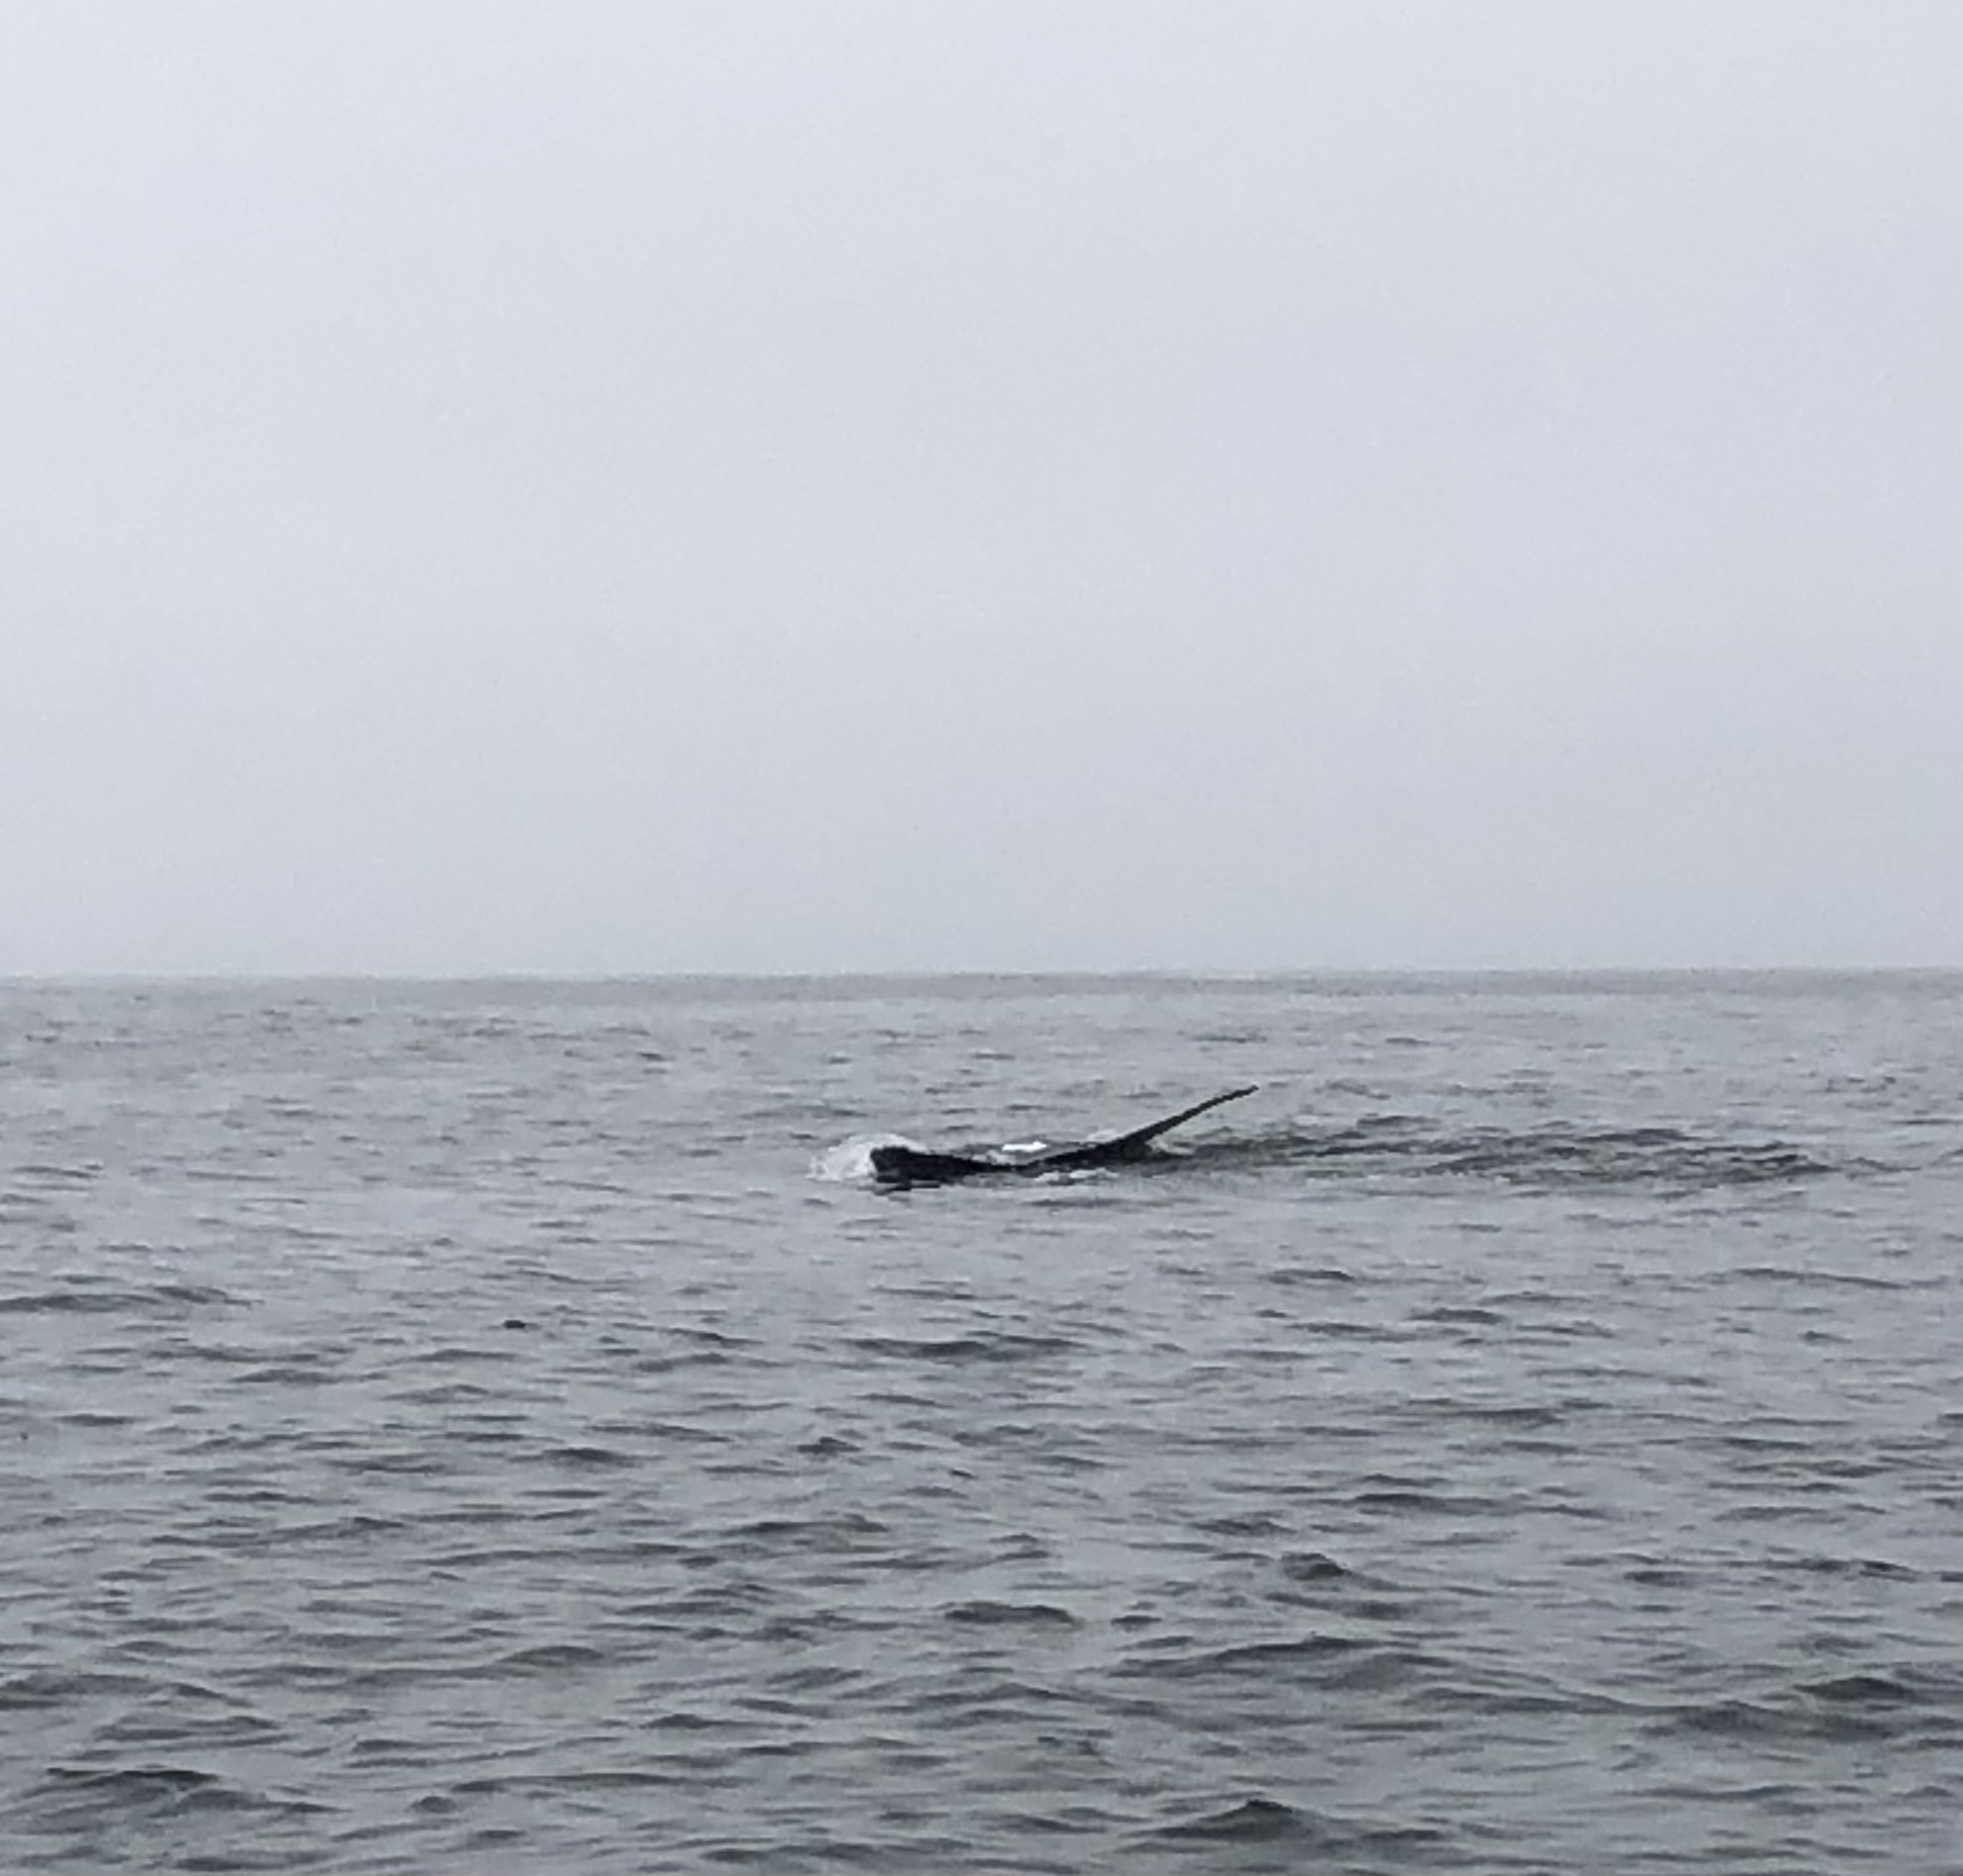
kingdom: Animalia
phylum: Chordata
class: Mammalia
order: Cetacea
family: Balaenopteridae
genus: Megaptera
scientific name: Megaptera novaeangliae
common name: Humpback whale
